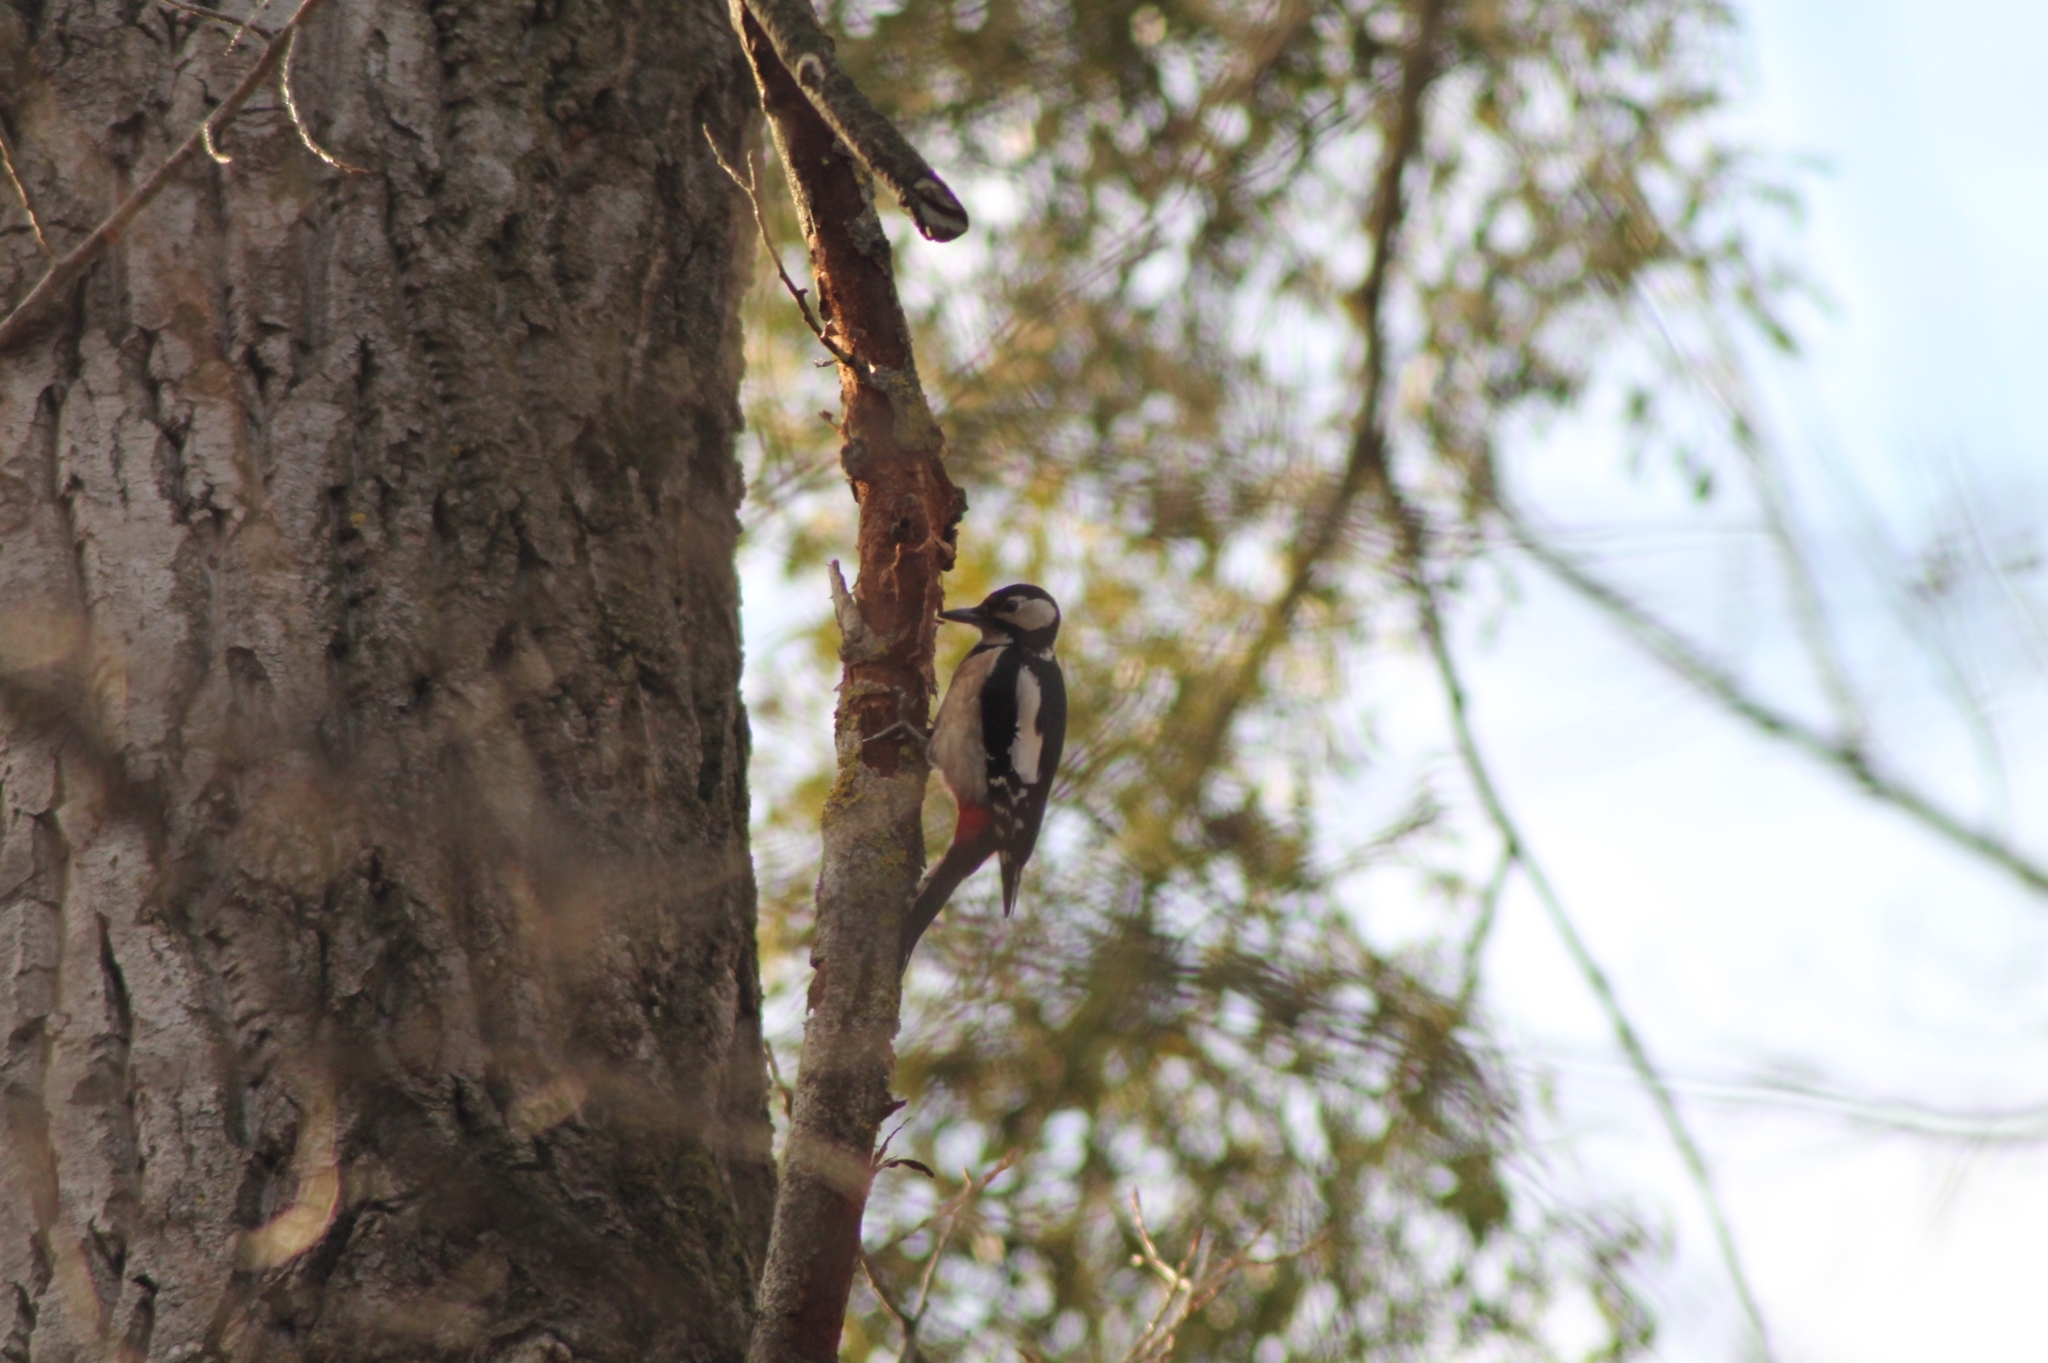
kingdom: Animalia
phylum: Chordata
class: Aves
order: Piciformes
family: Picidae
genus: Dendrocopos
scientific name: Dendrocopos major
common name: Great spotted woodpecker
